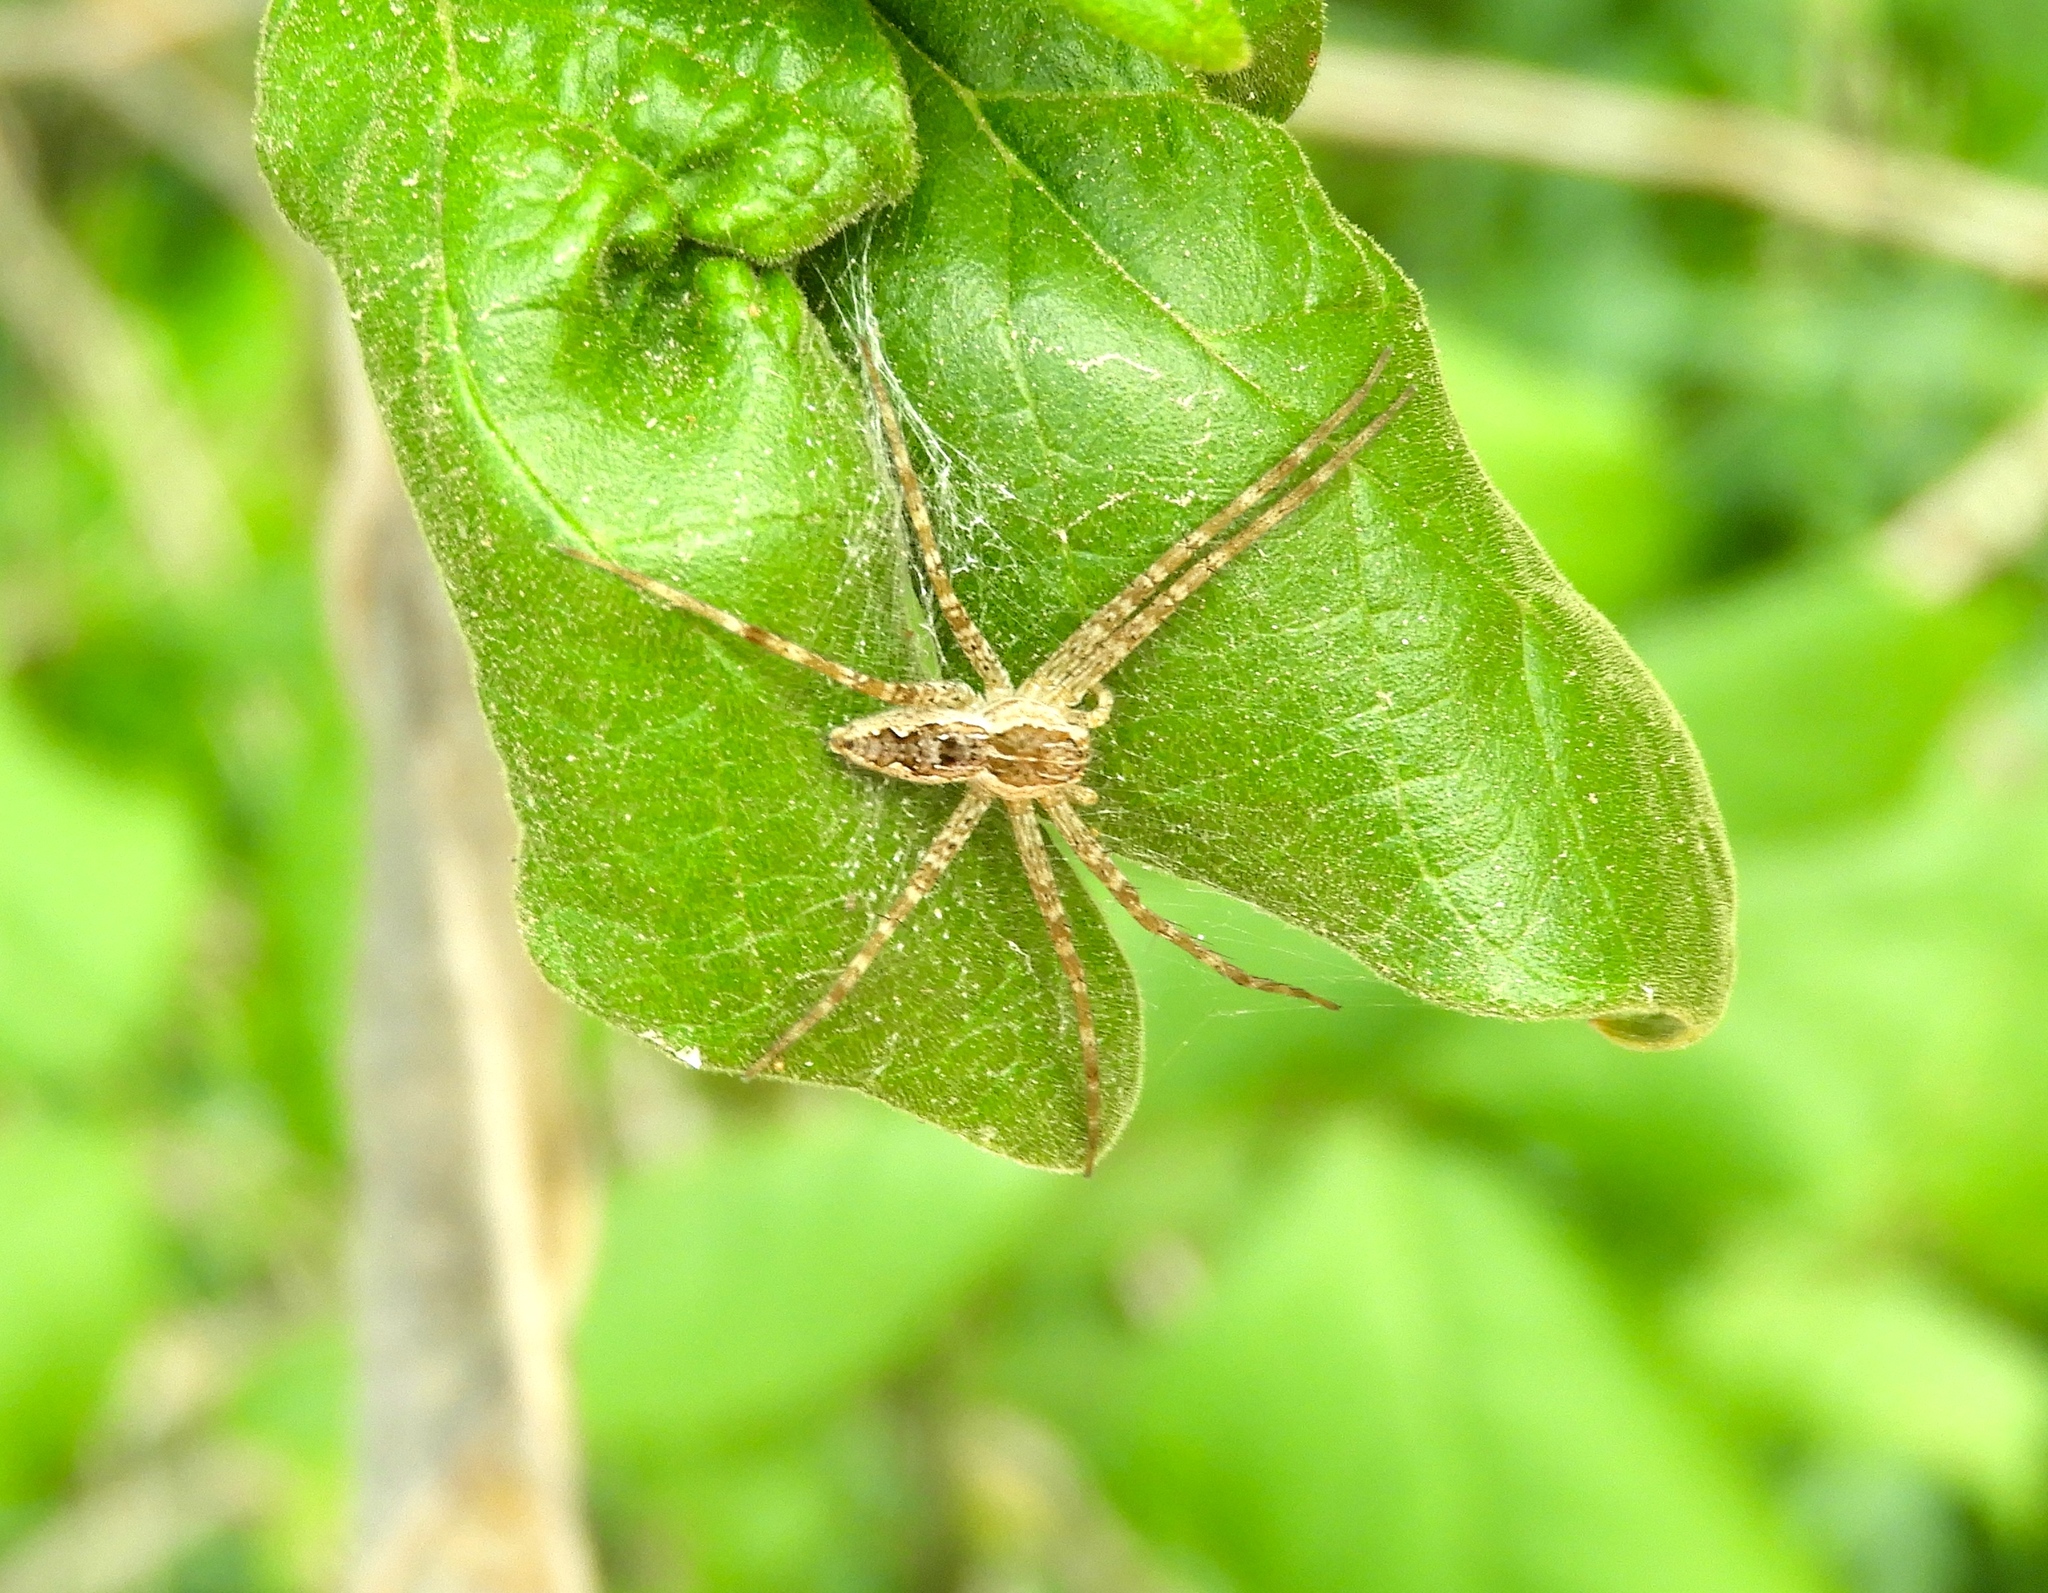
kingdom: Animalia
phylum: Arthropoda
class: Arachnida
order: Araneae
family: Pisauridae
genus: Tinus
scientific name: Tinus
